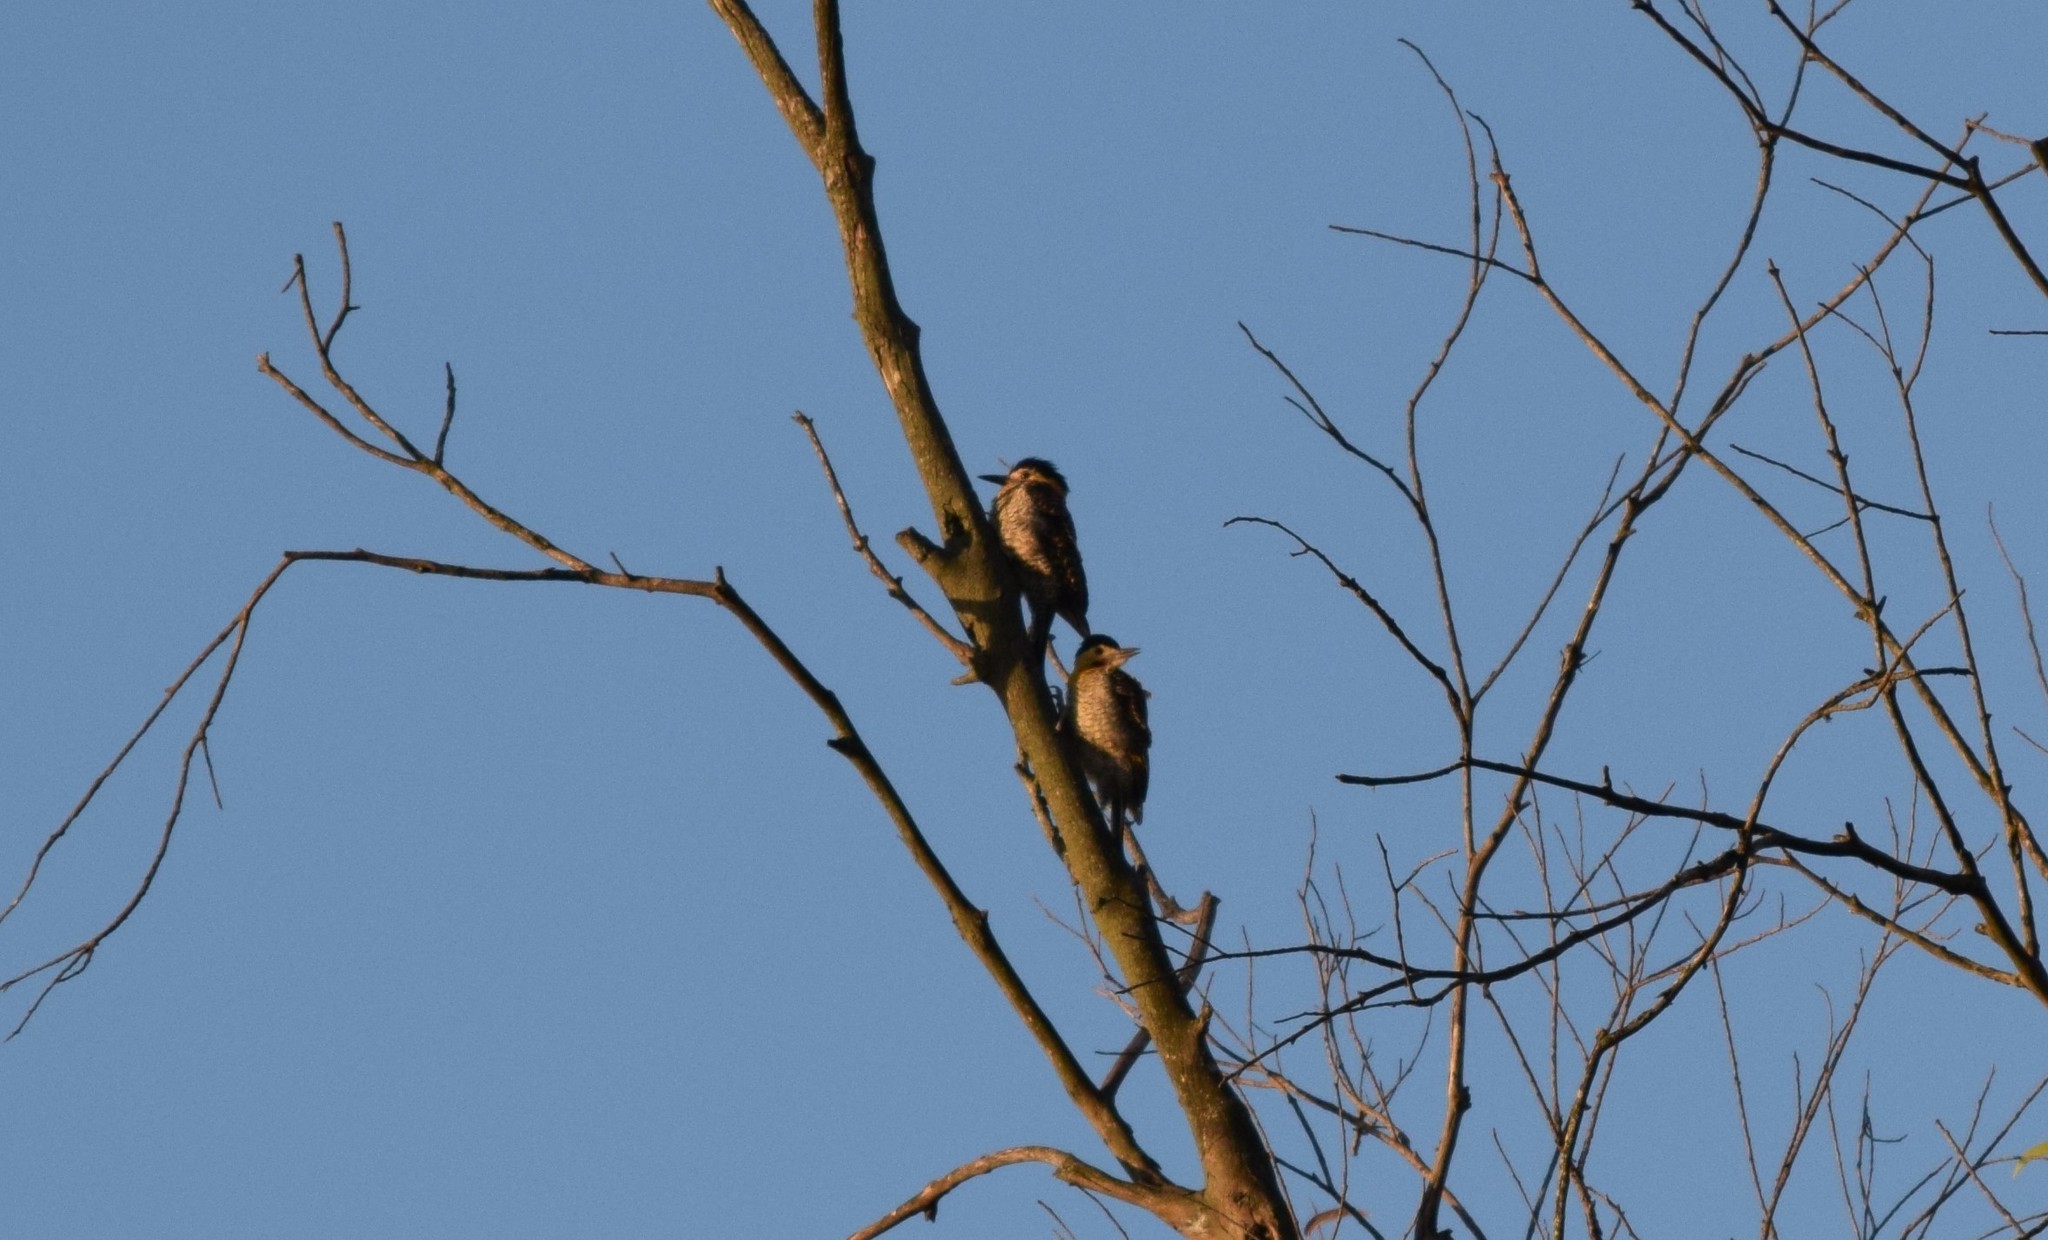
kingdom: Animalia
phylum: Chordata
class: Aves
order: Piciformes
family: Picidae
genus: Colaptes
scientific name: Colaptes campestris
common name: Campo flicker
